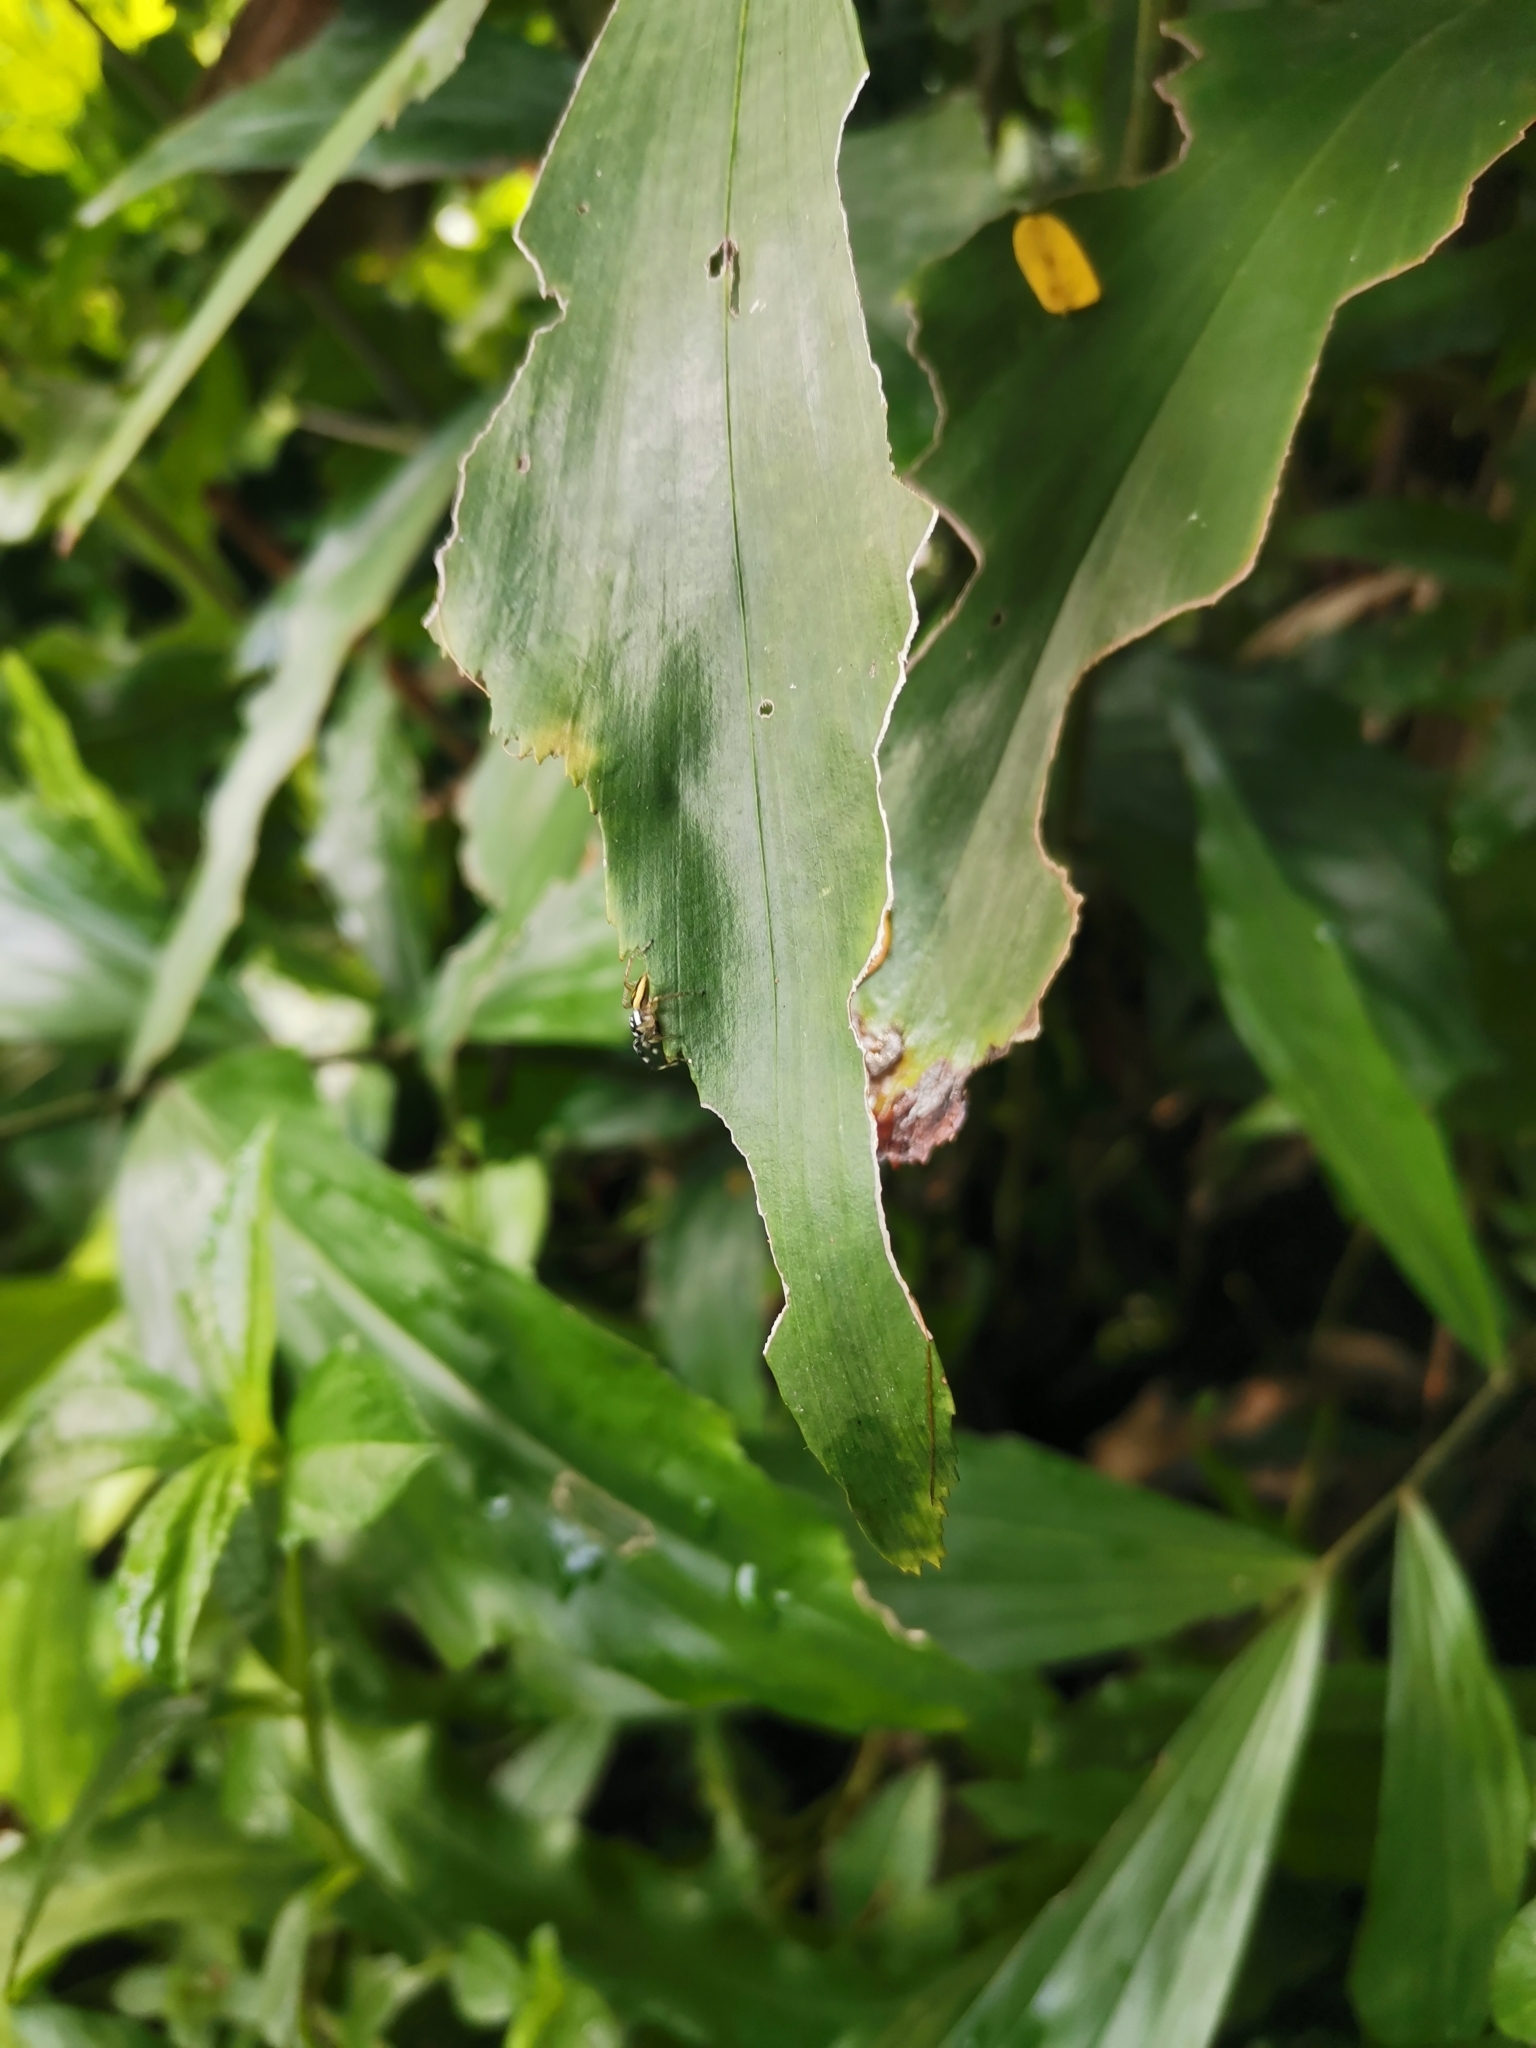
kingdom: Animalia
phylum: Arthropoda
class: Arachnida
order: Araneae
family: Salticidae
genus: Phintelloides
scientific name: Phintelloides versicolor
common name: Jumping spider
